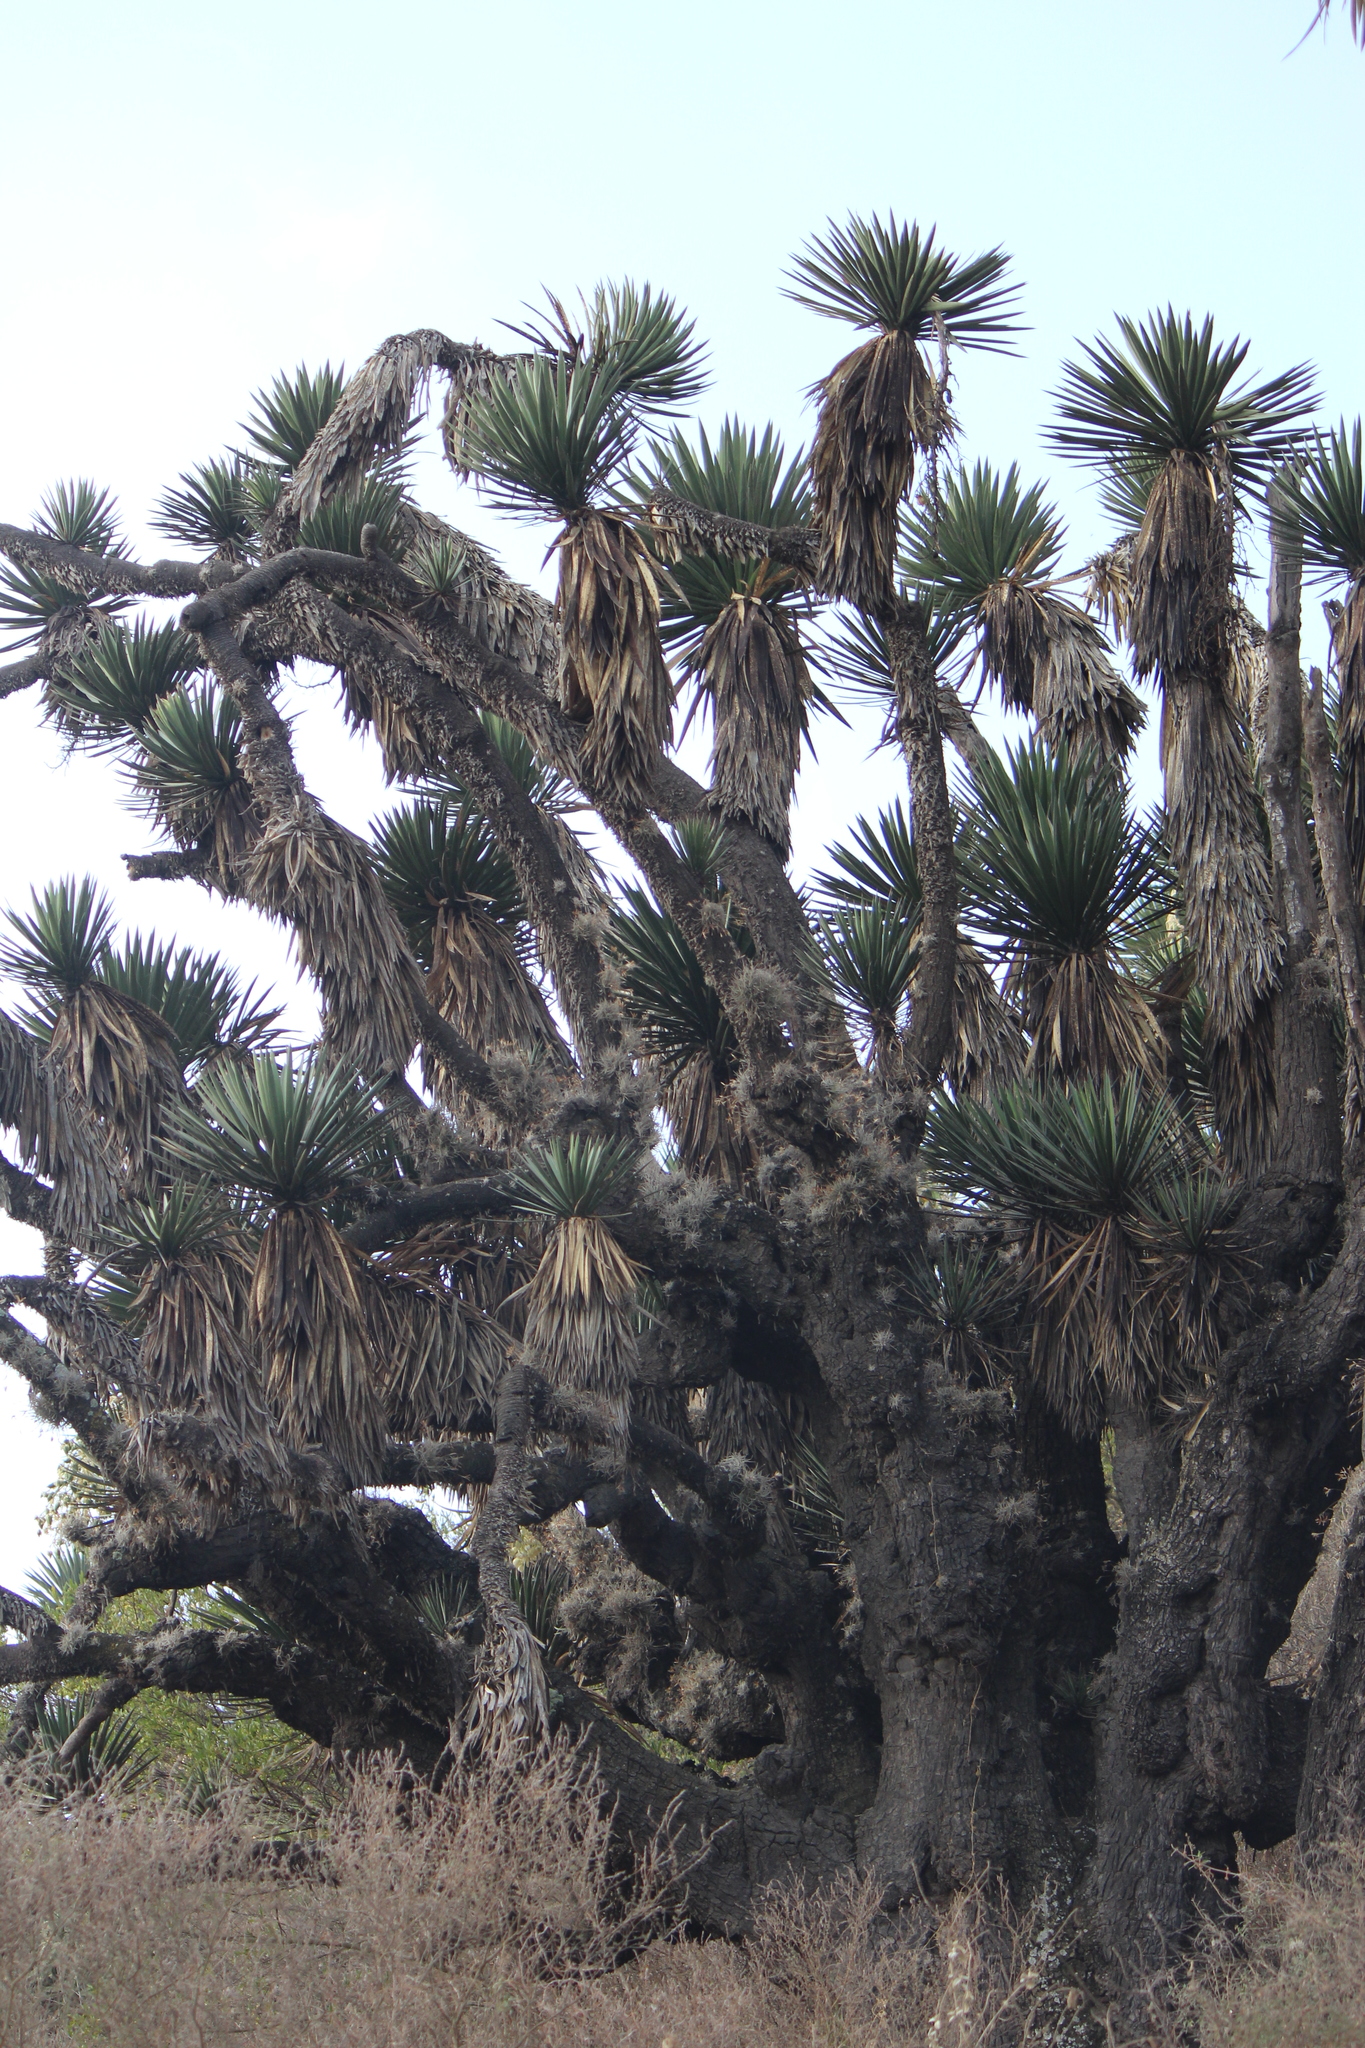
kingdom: Plantae
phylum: Tracheophyta
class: Liliopsida
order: Asparagales
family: Asparagaceae
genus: Yucca
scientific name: Yucca filifera
